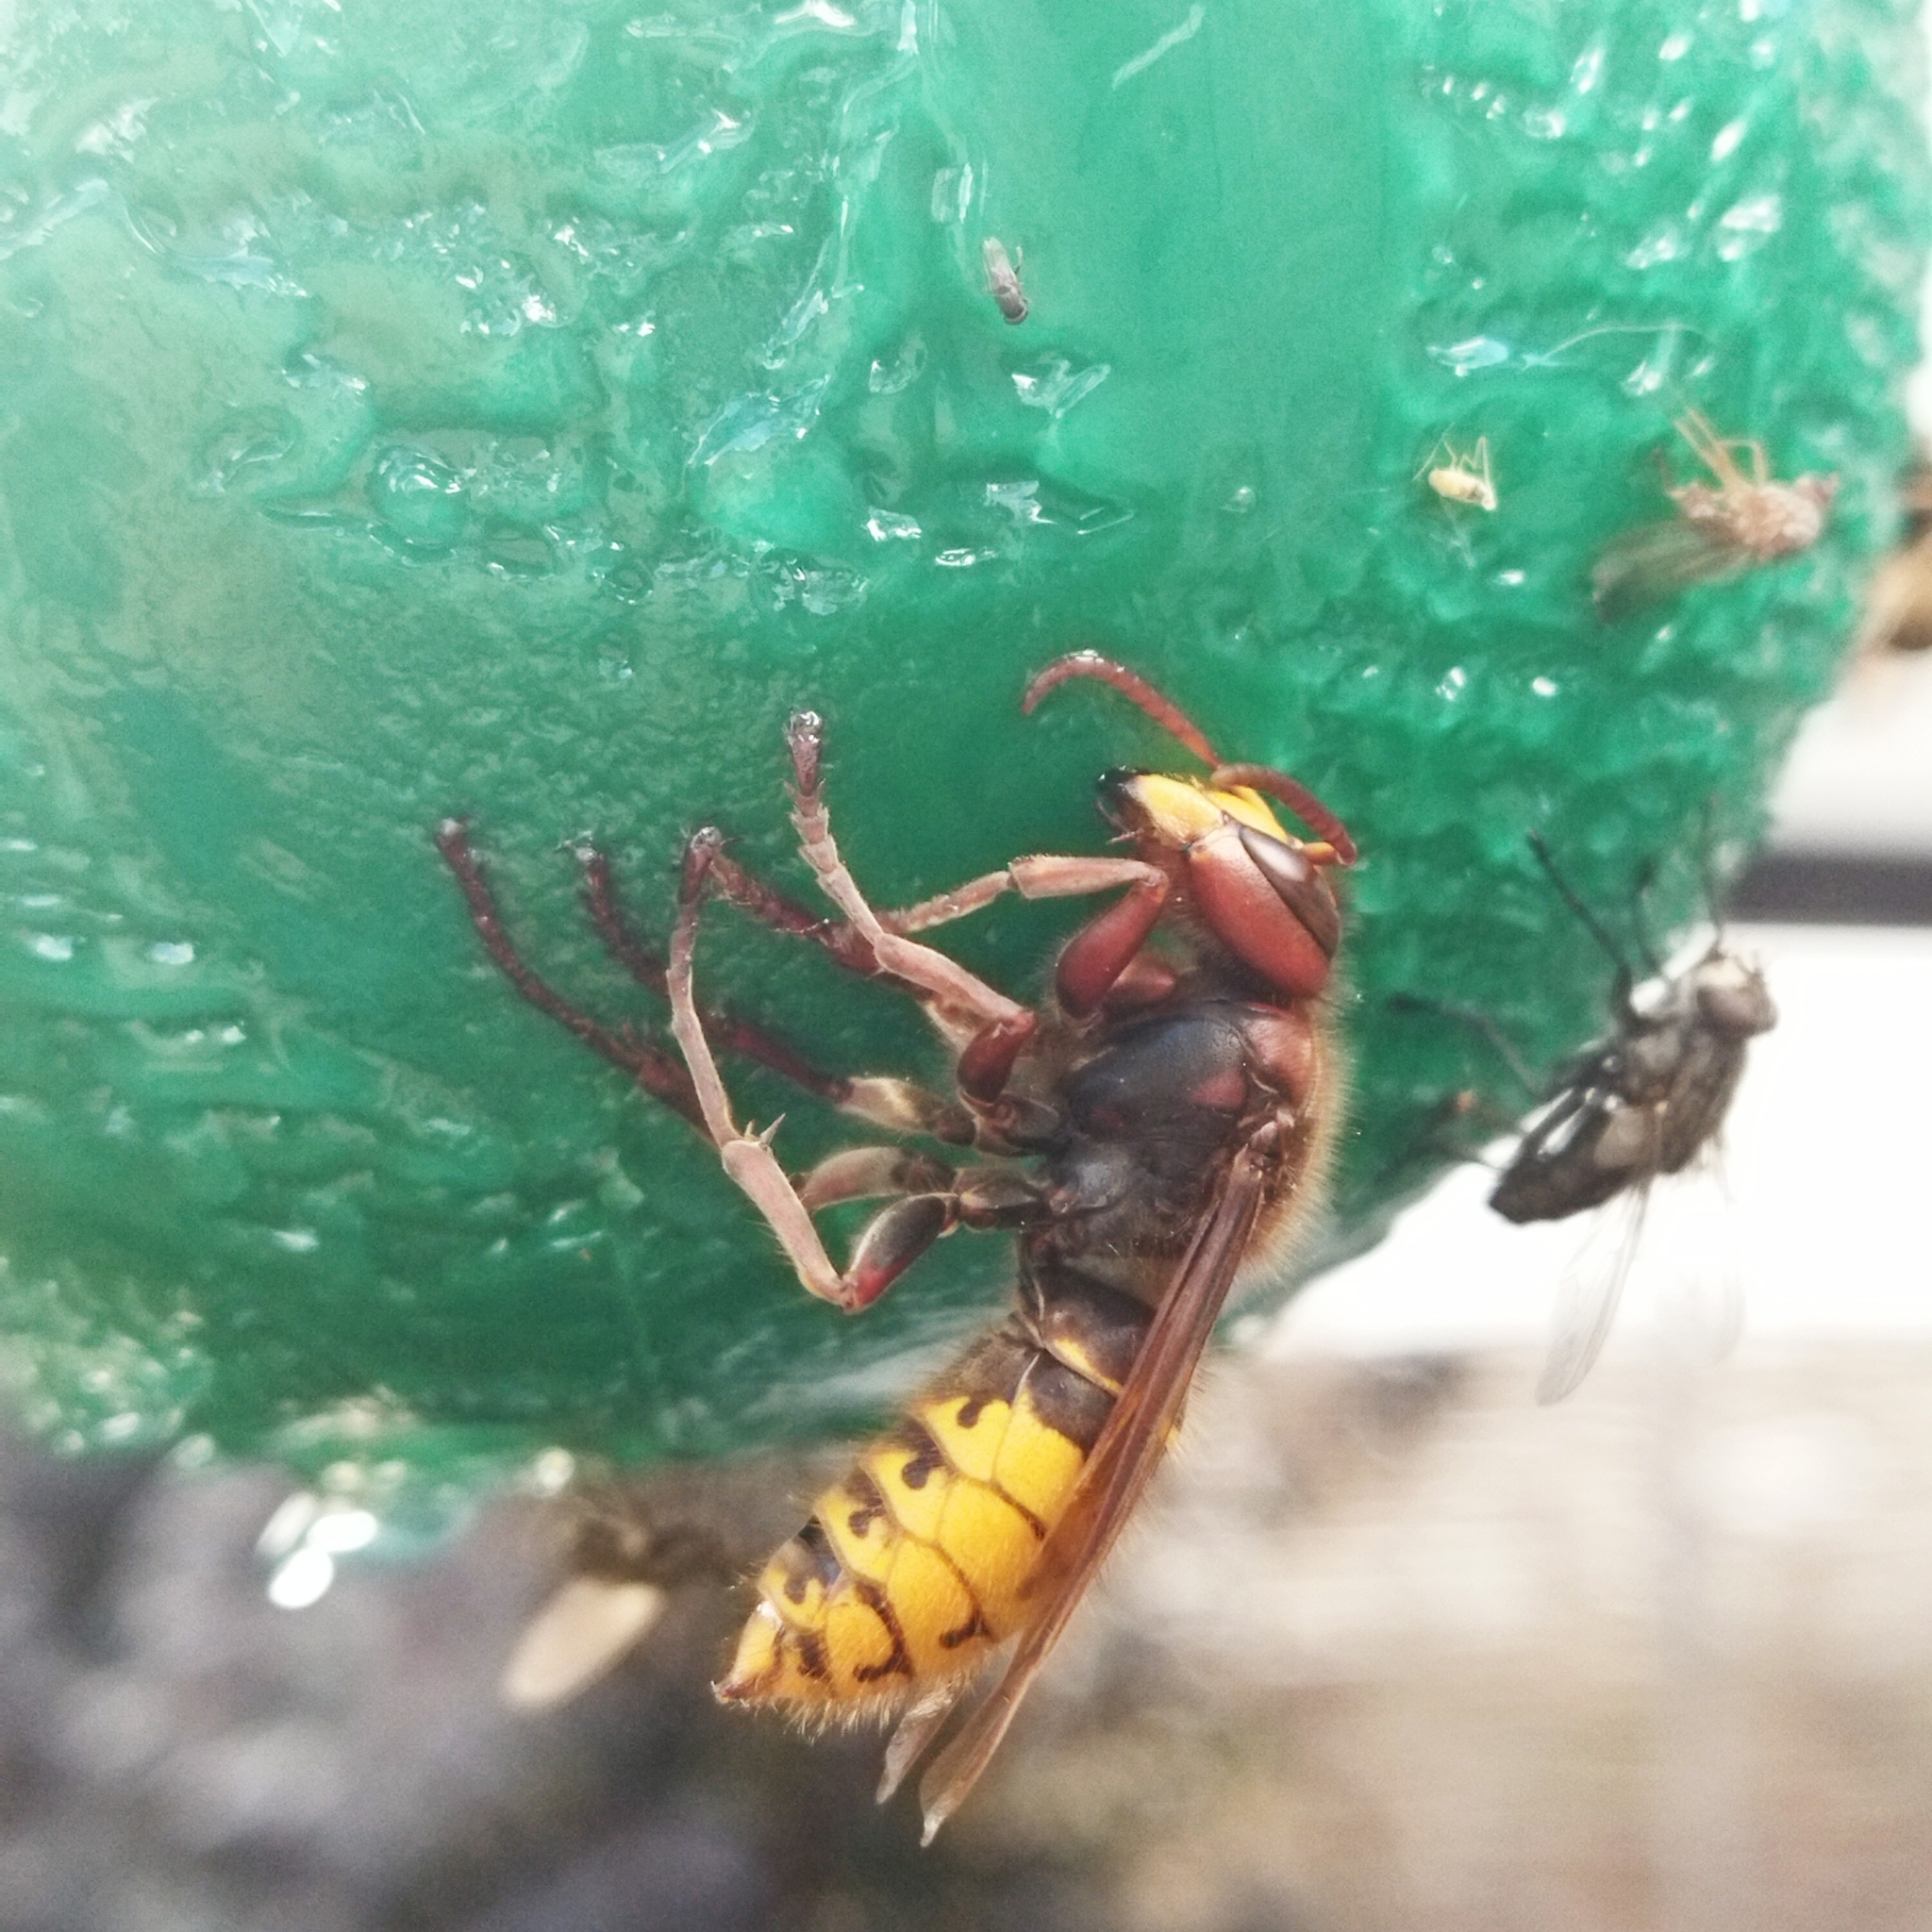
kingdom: Animalia
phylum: Arthropoda
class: Insecta
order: Hymenoptera
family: Vespidae
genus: Vespa
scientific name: Vespa crabro
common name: Hornet
